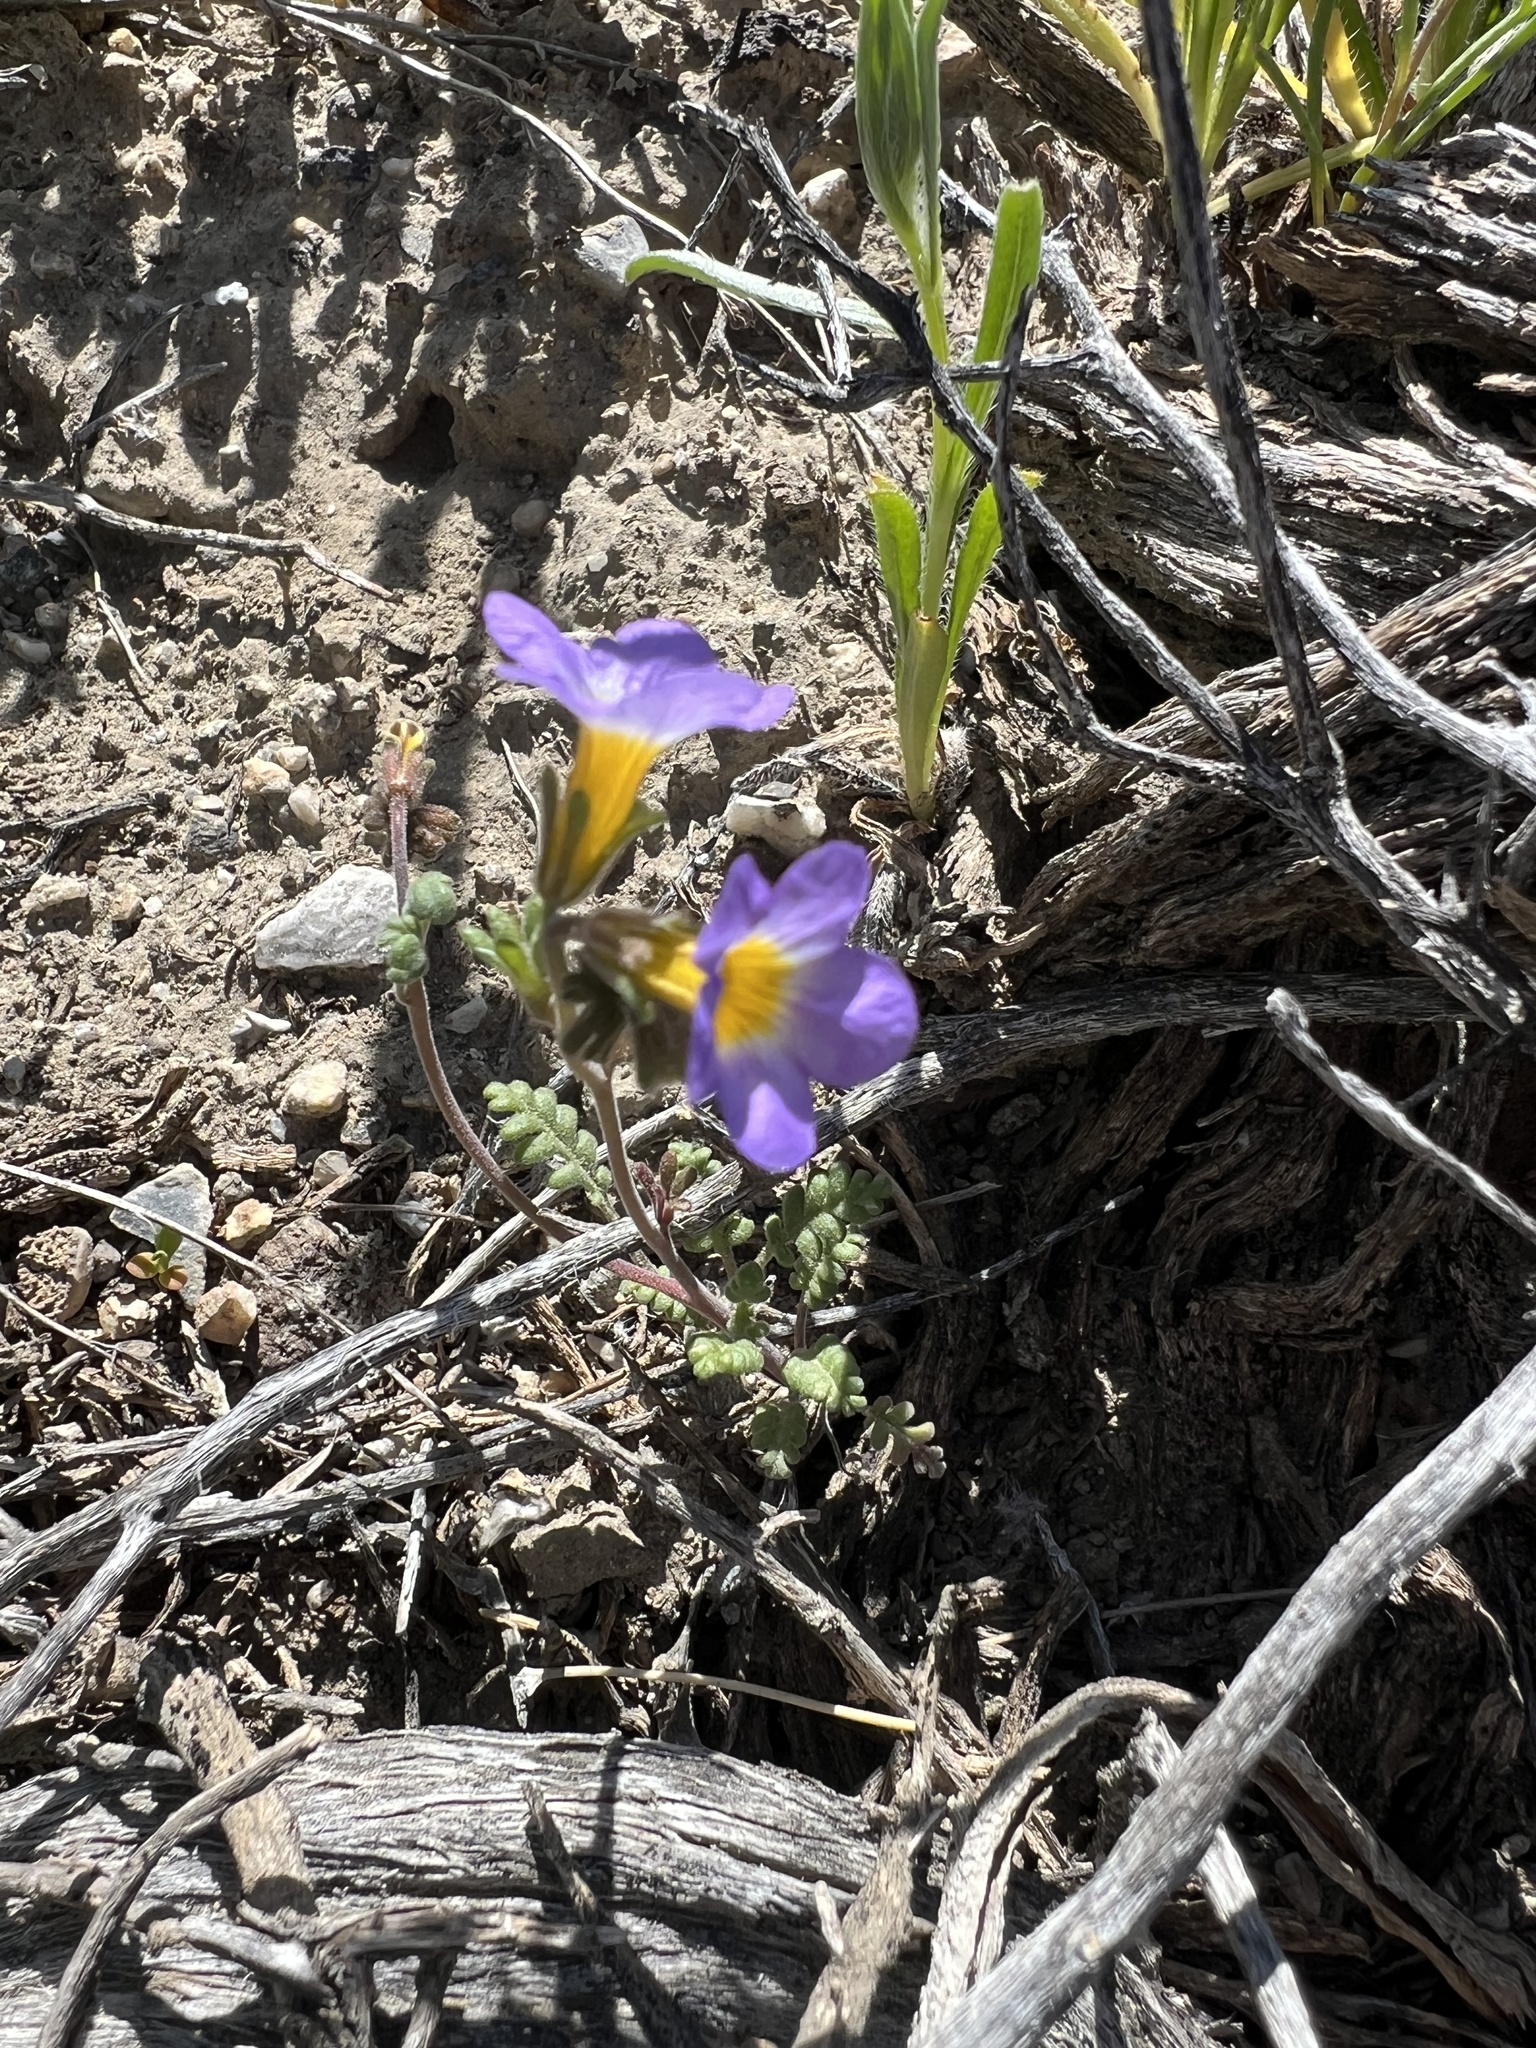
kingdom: Plantae
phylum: Tracheophyta
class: Magnoliopsida
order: Boraginales
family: Hydrophyllaceae
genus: Phacelia
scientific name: Phacelia fremontii
